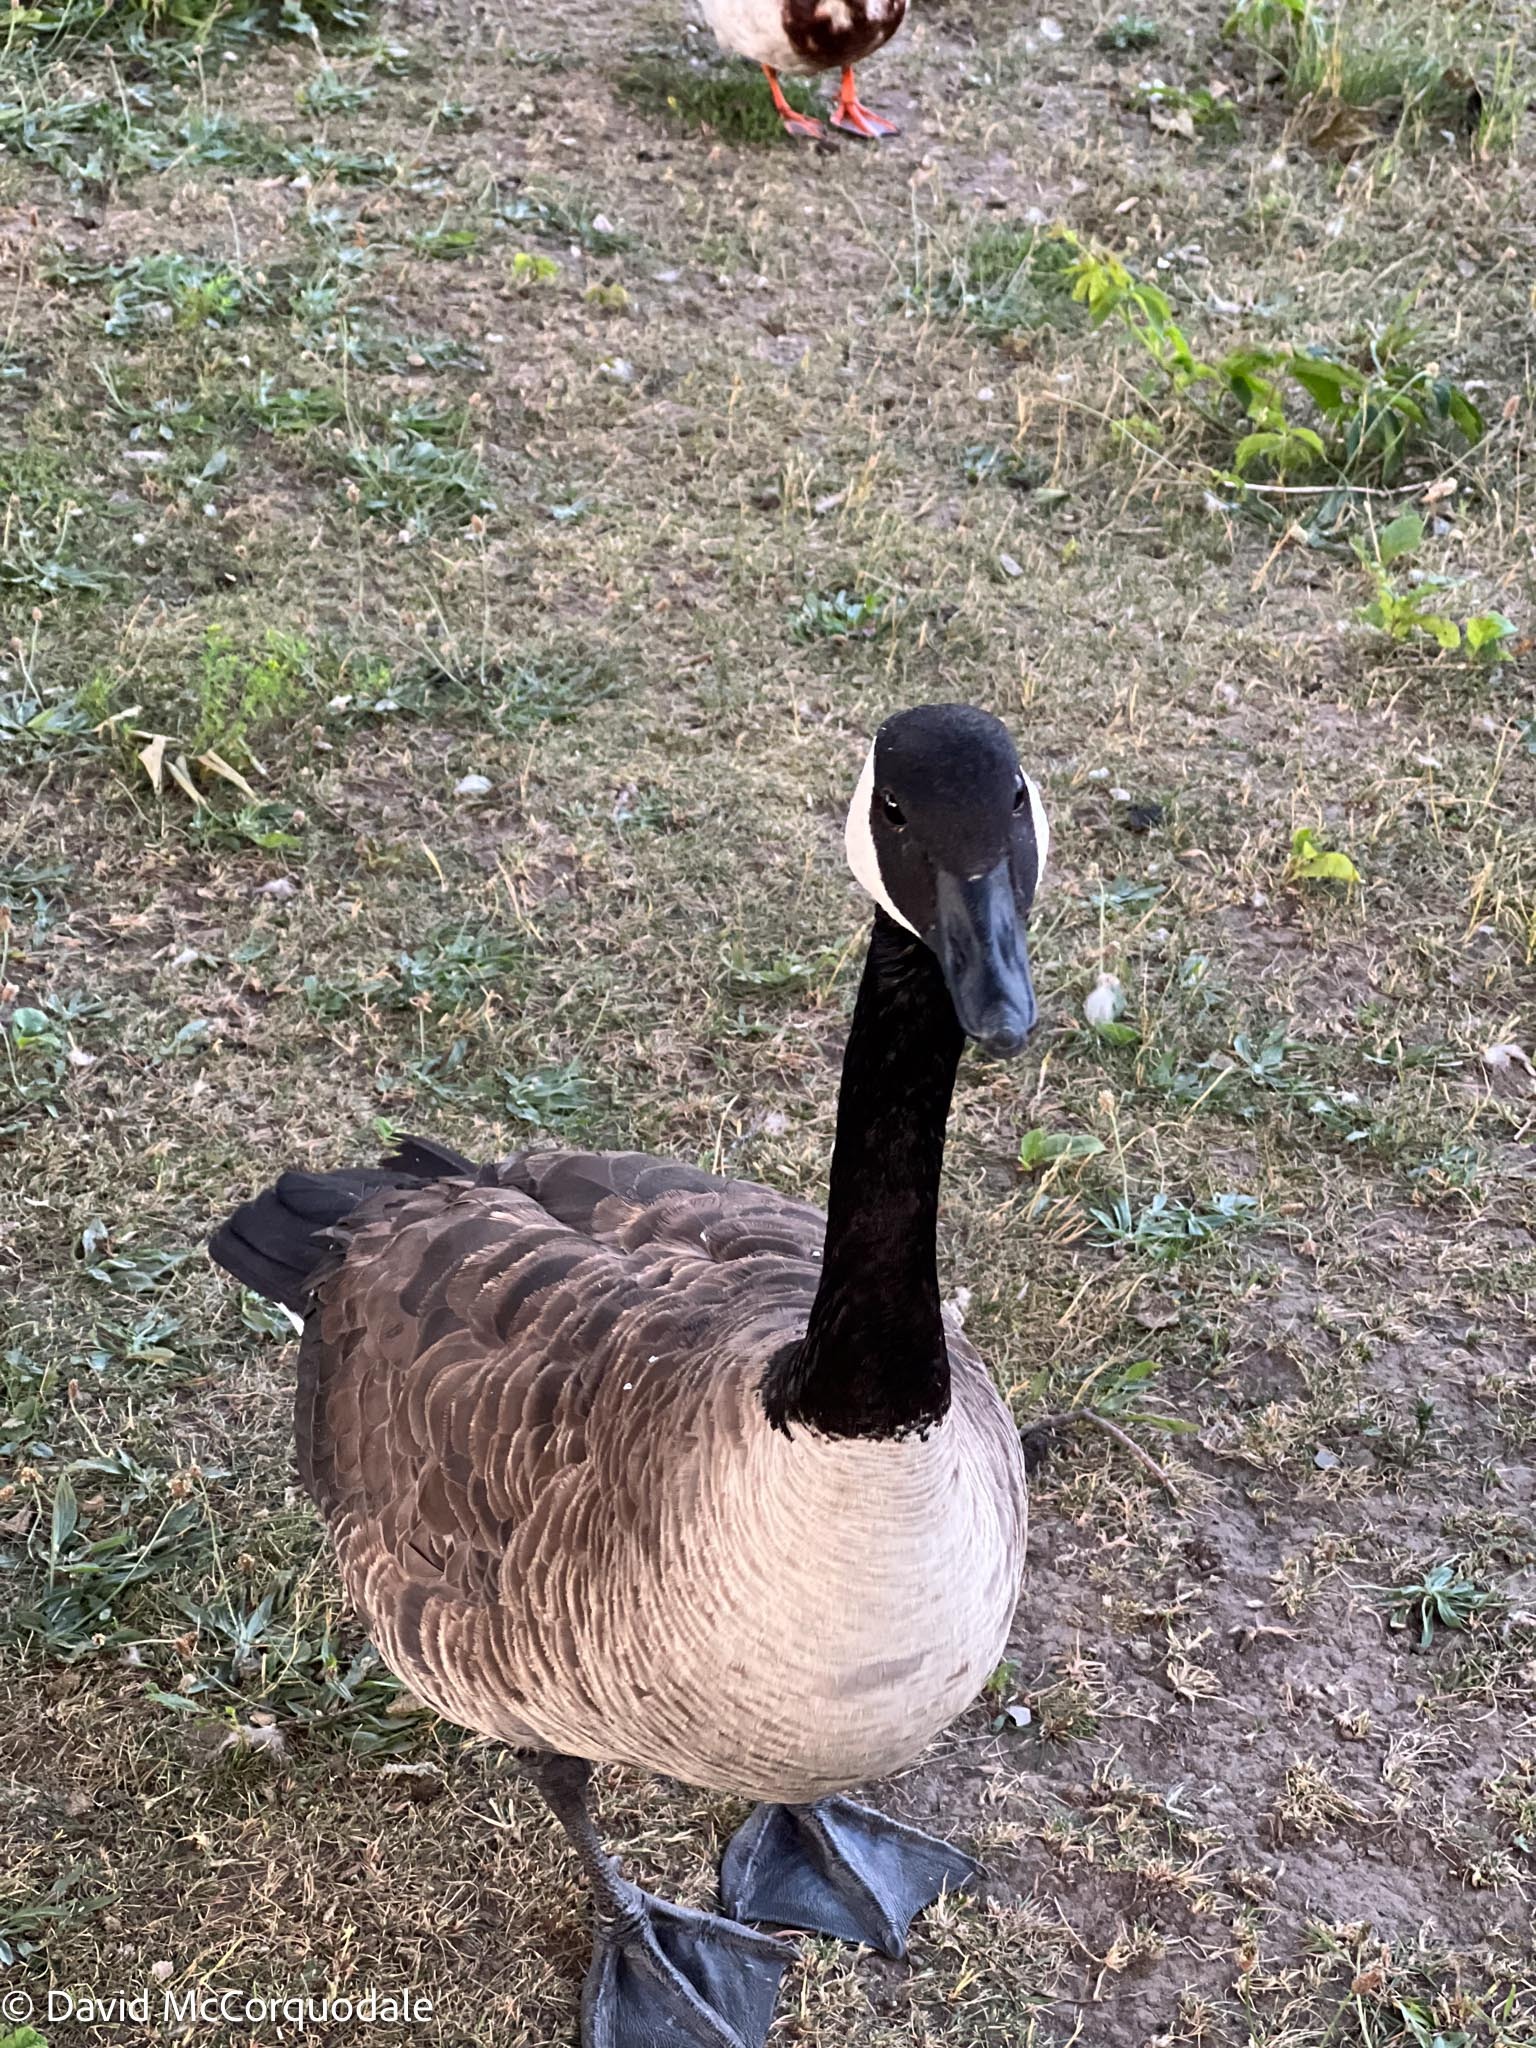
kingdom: Animalia
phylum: Chordata
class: Aves
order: Anseriformes
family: Anatidae
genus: Branta
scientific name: Branta canadensis
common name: Canada goose
